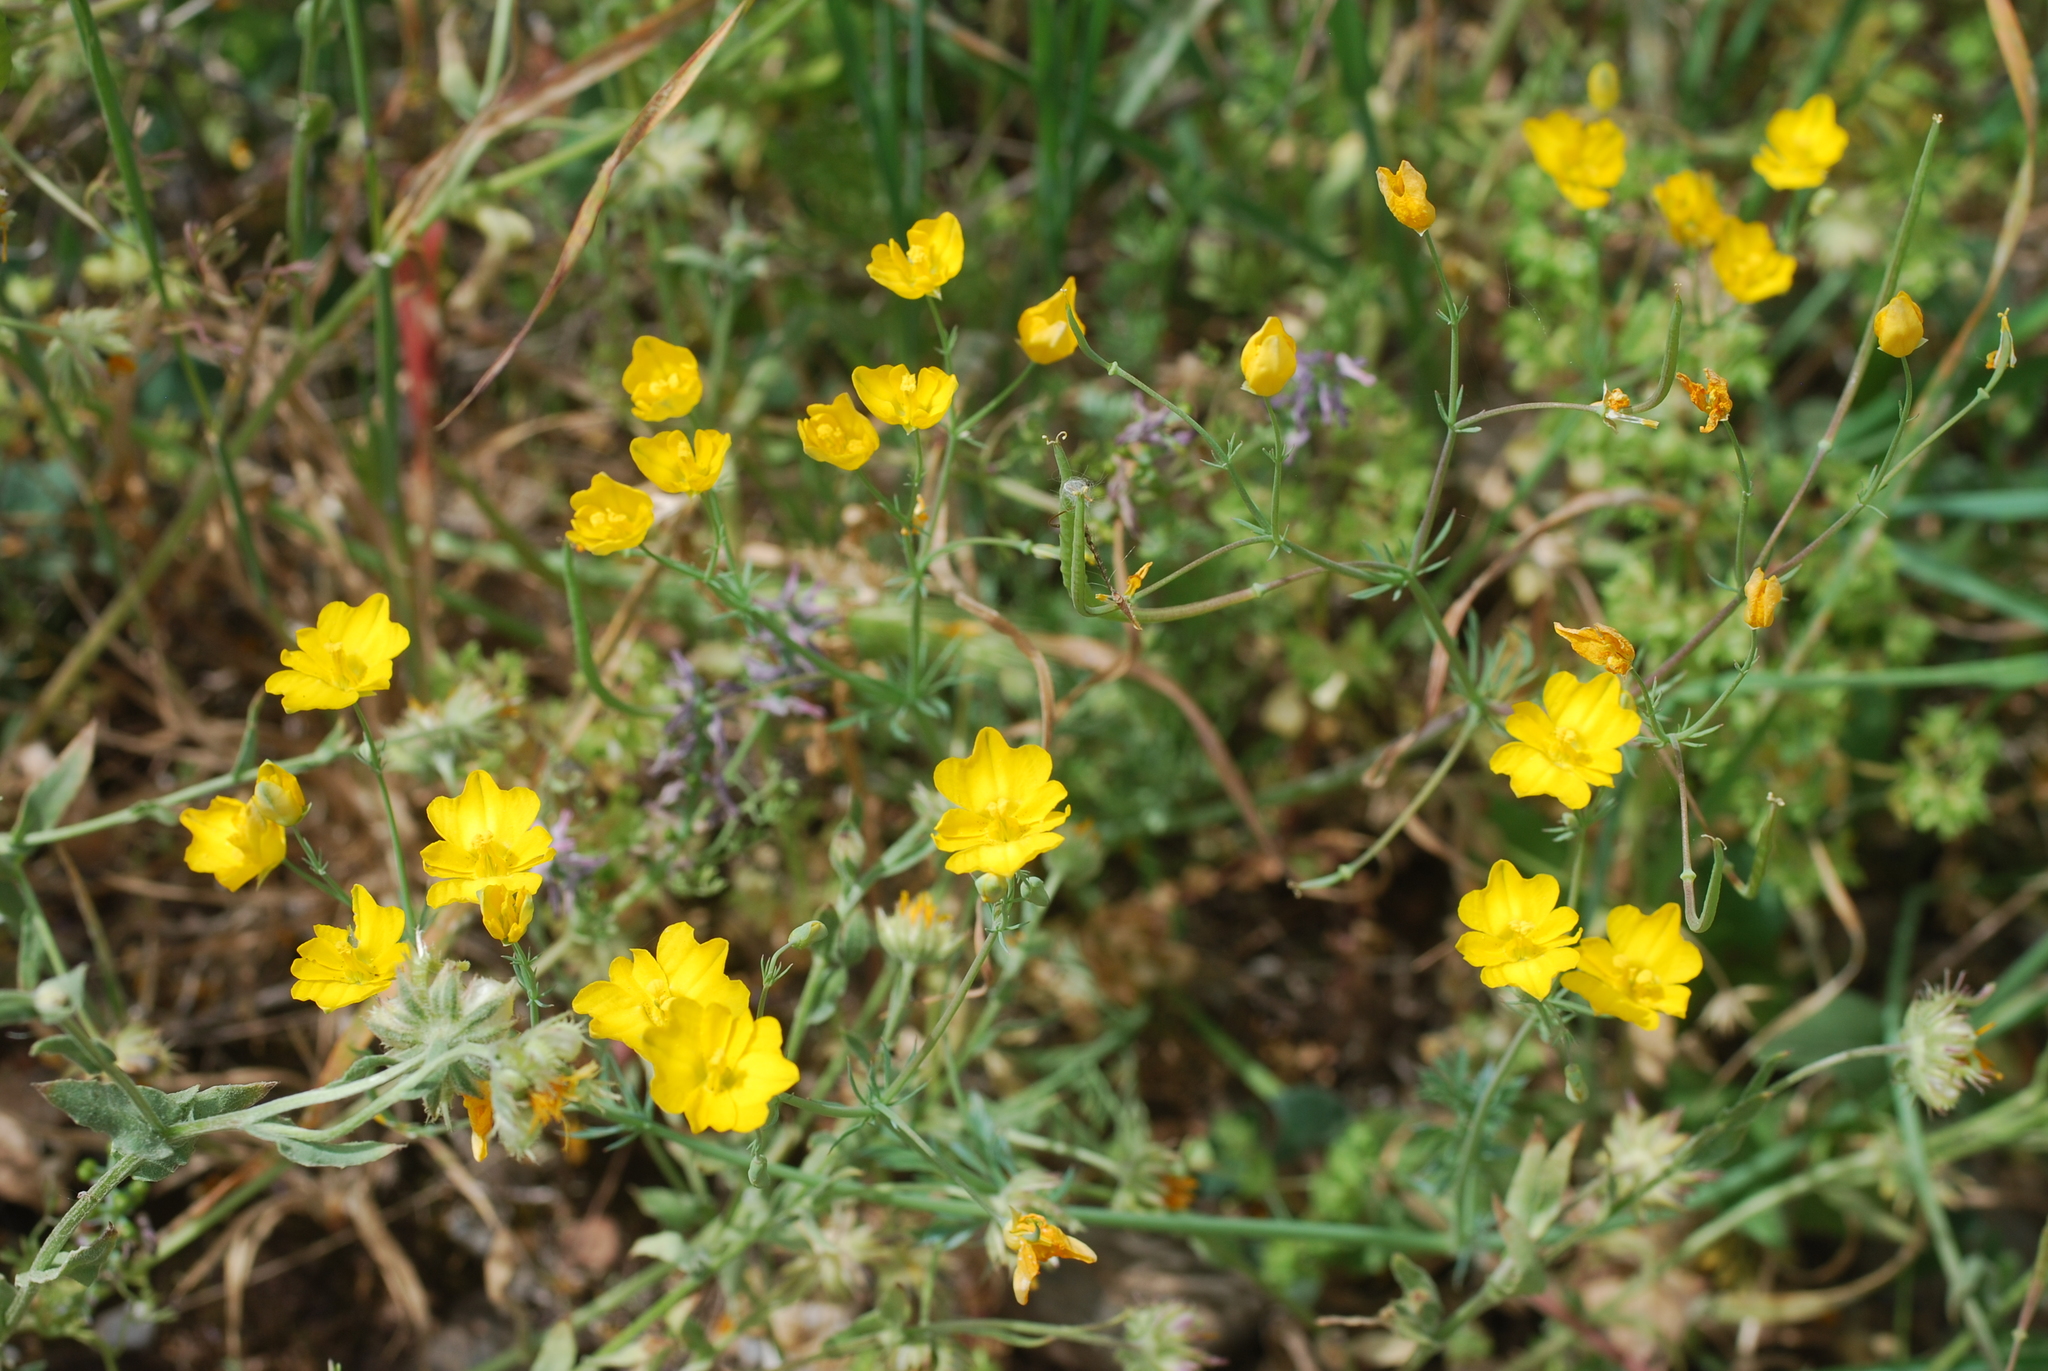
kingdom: Plantae
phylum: Tracheophyta
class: Magnoliopsida
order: Ranunculales
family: Papaveraceae
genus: Hypecoum
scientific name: Hypecoum imberbe
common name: Sicklefruit hypecoum
